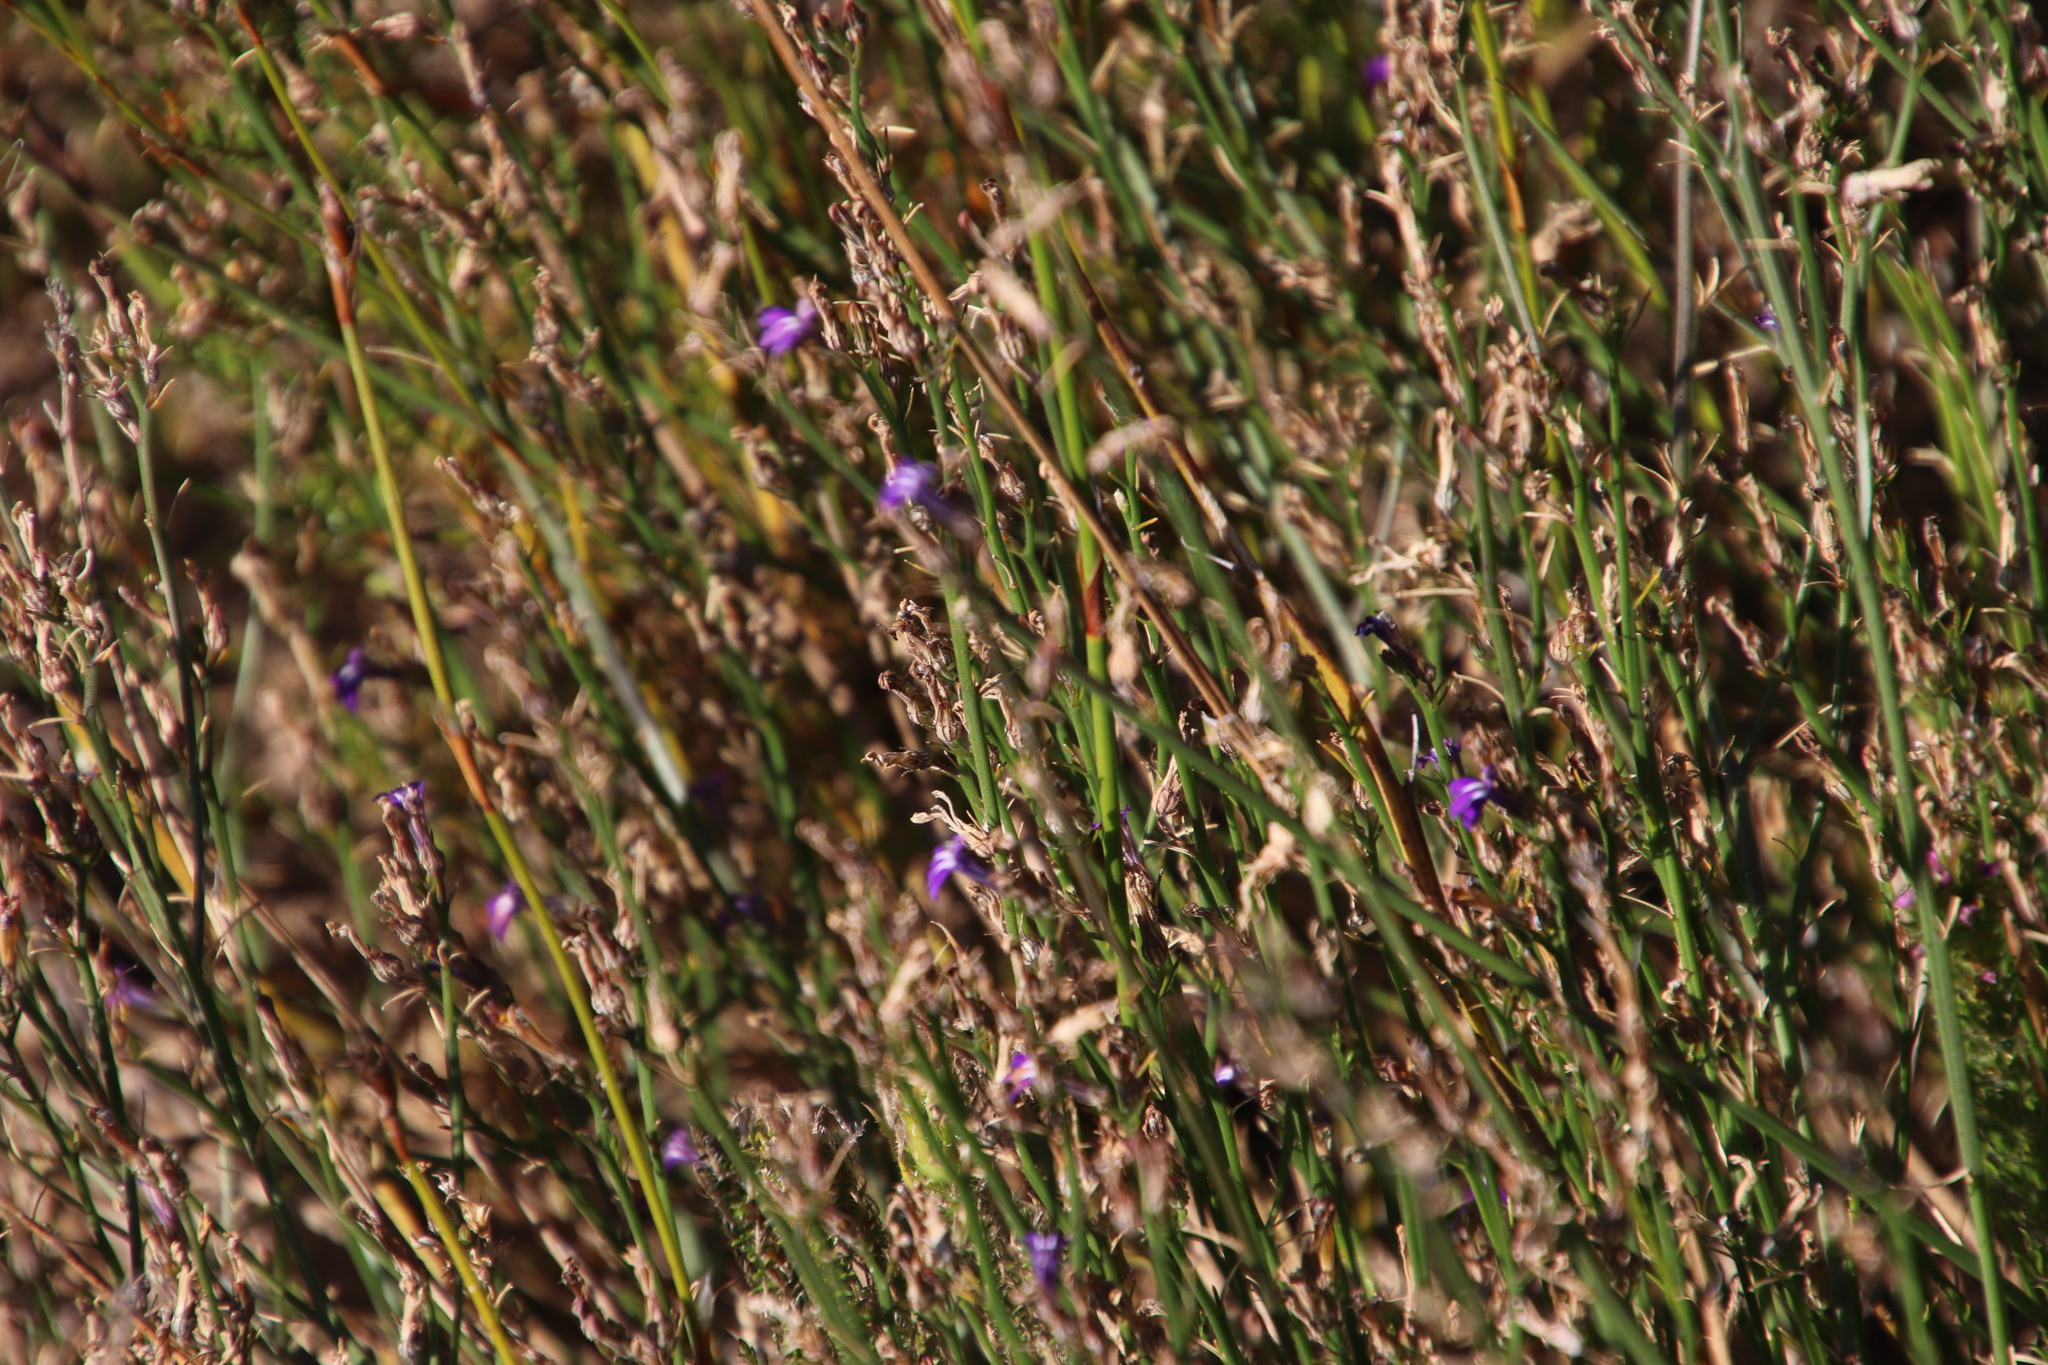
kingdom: Plantae
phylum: Tracheophyta
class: Magnoliopsida
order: Asterales
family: Campanulaceae
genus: Lobelia
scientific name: Lobelia linearis
